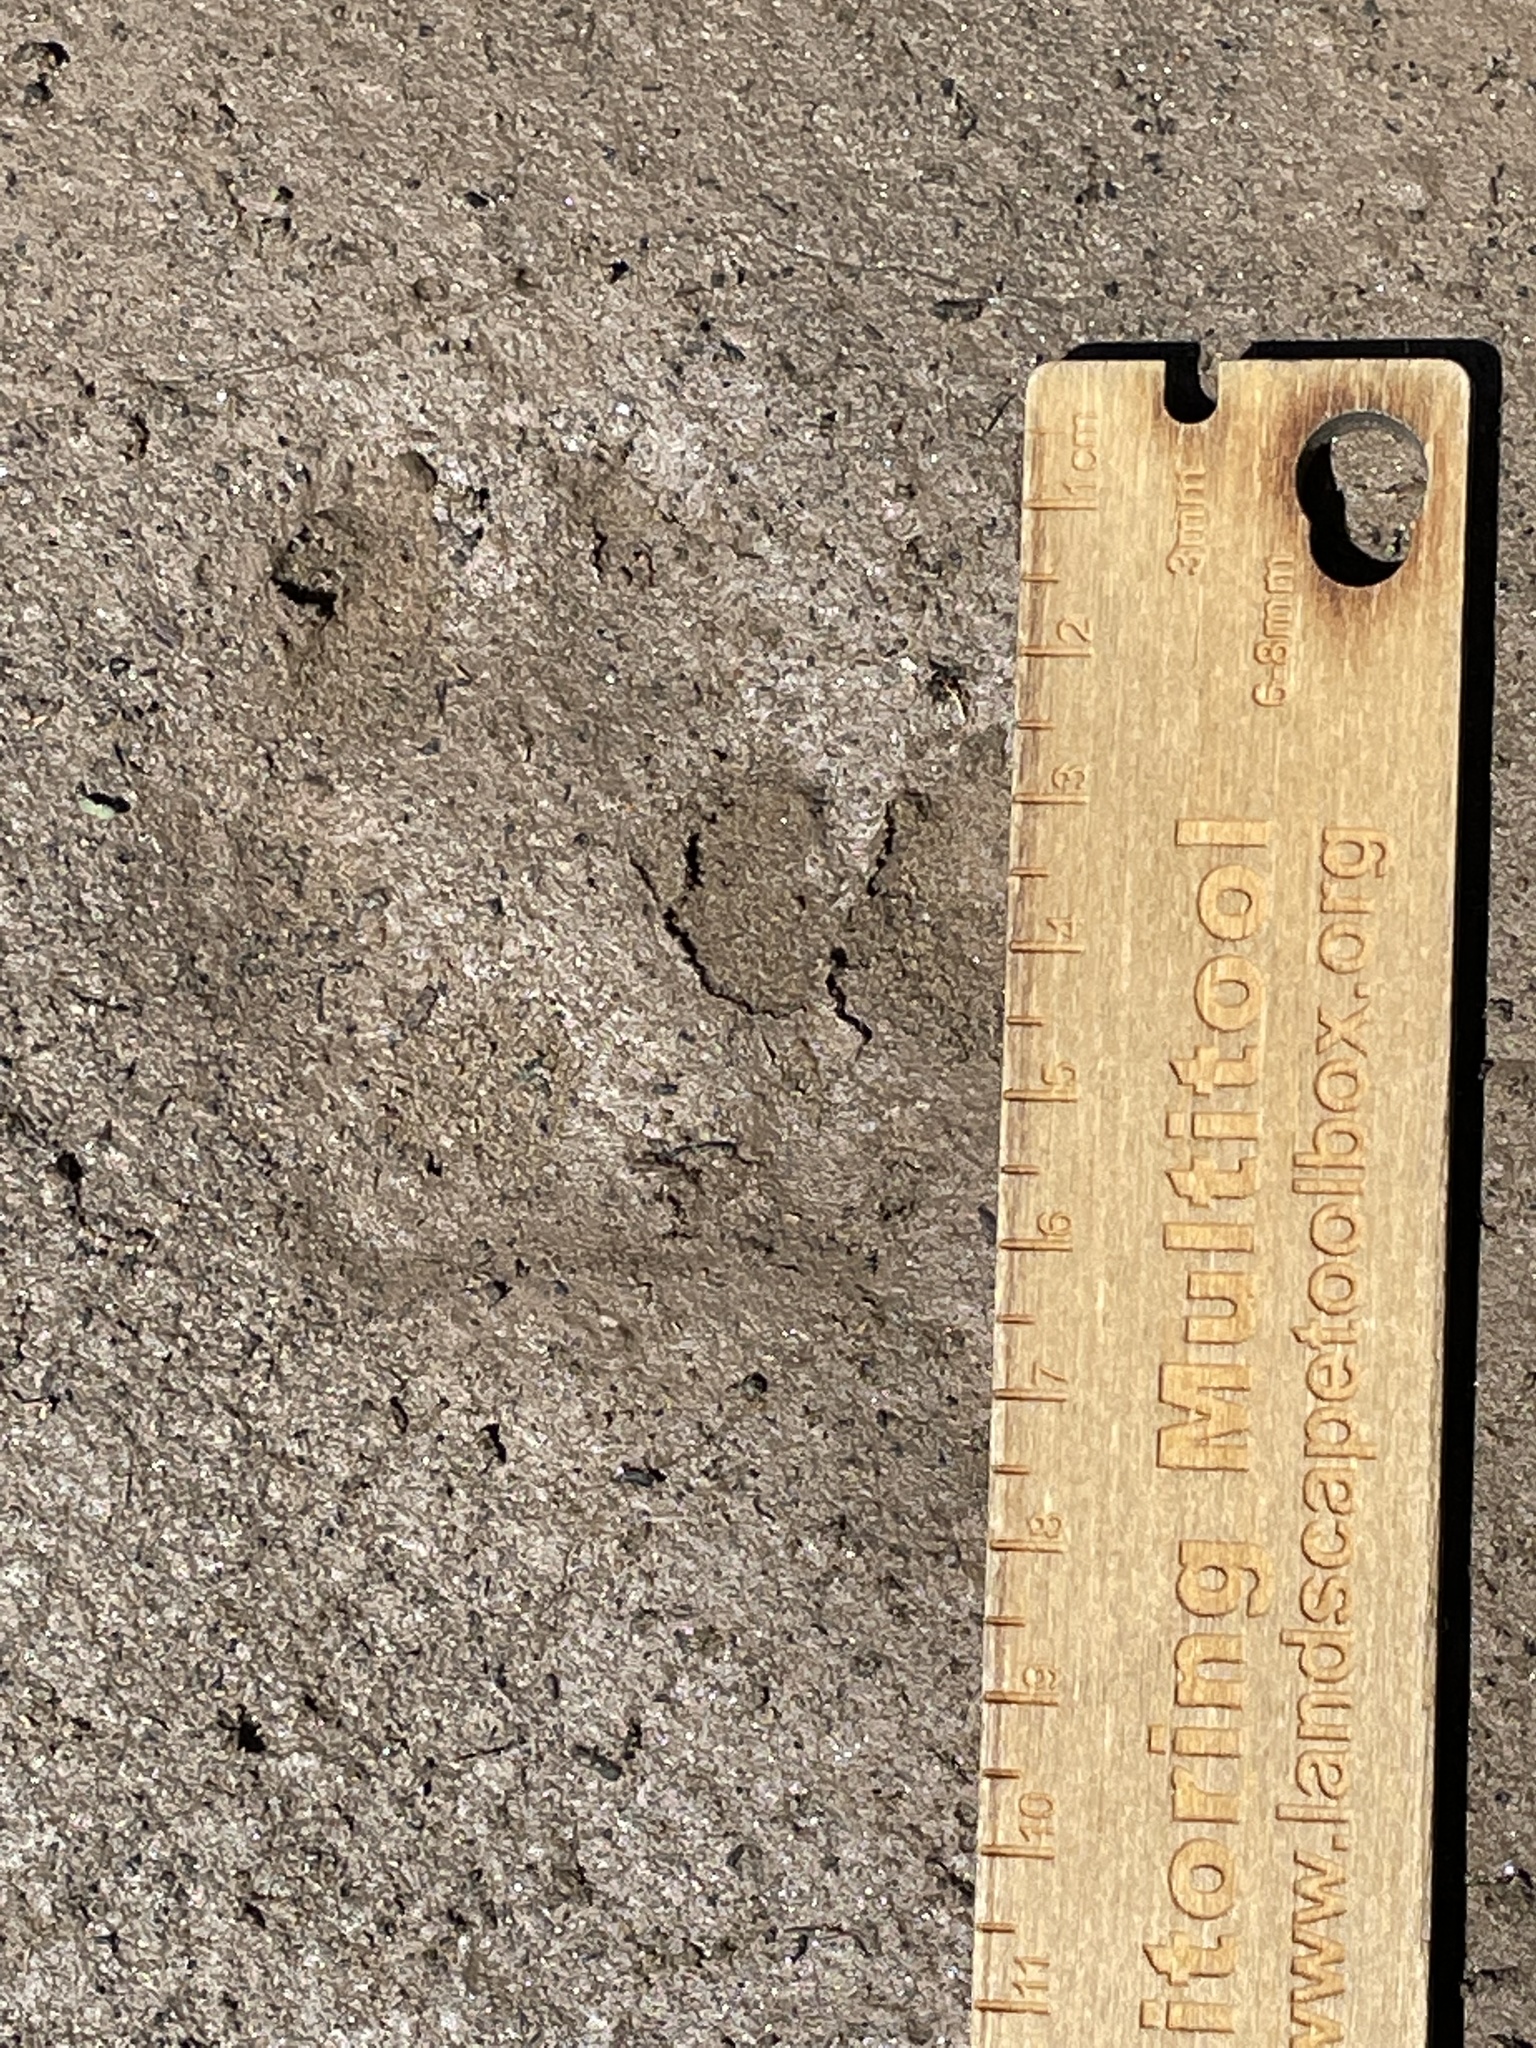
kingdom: Animalia
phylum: Chordata
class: Mammalia
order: Carnivora
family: Canidae
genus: Vulpes
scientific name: Vulpes vulpes
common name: Red fox
